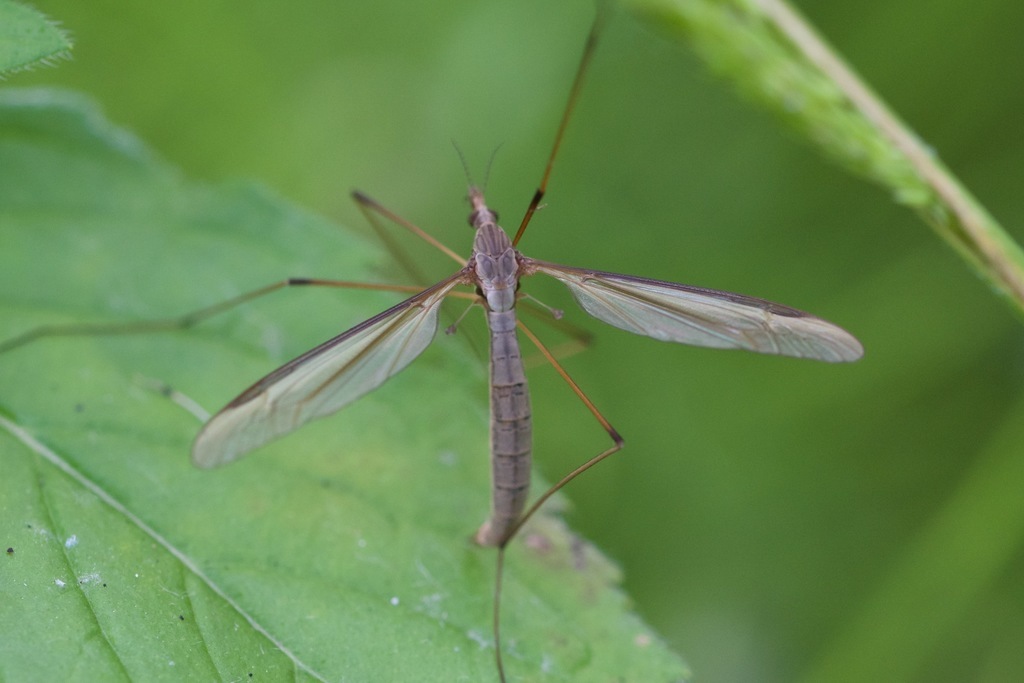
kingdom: Animalia
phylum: Arthropoda
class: Insecta
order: Diptera
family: Tipulidae
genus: Tipula
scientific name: Tipula oleracea
